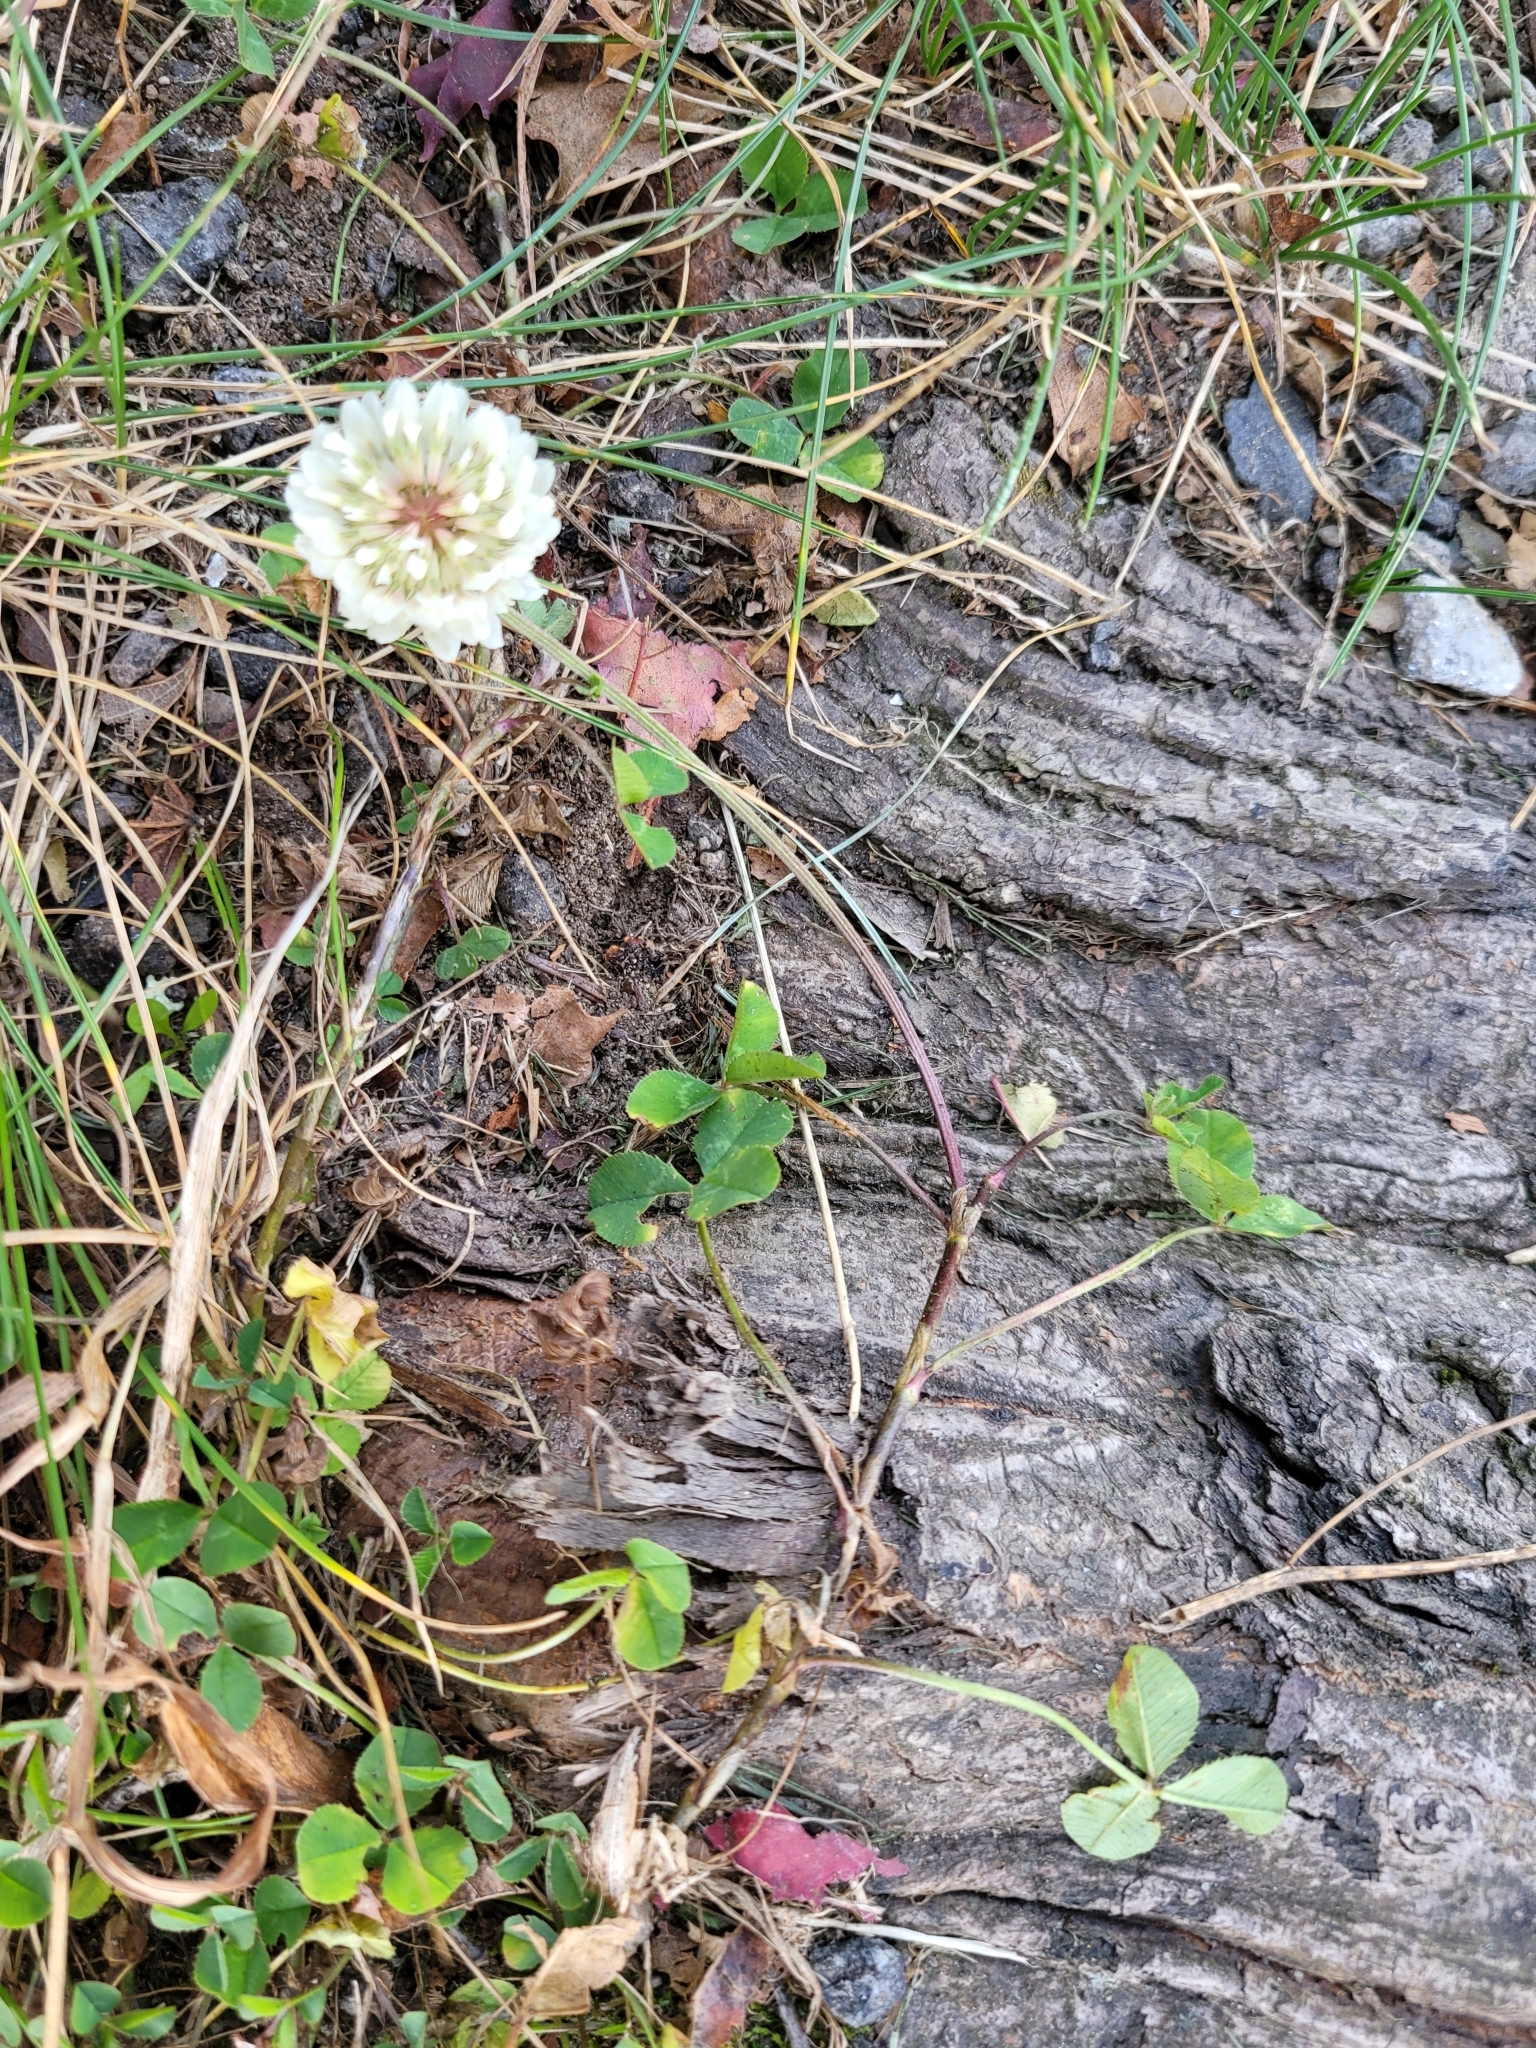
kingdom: Plantae
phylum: Tracheophyta
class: Magnoliopsida
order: Fabales
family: Fabaceae
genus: Trifolium
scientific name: Trifolium repens
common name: White clover
